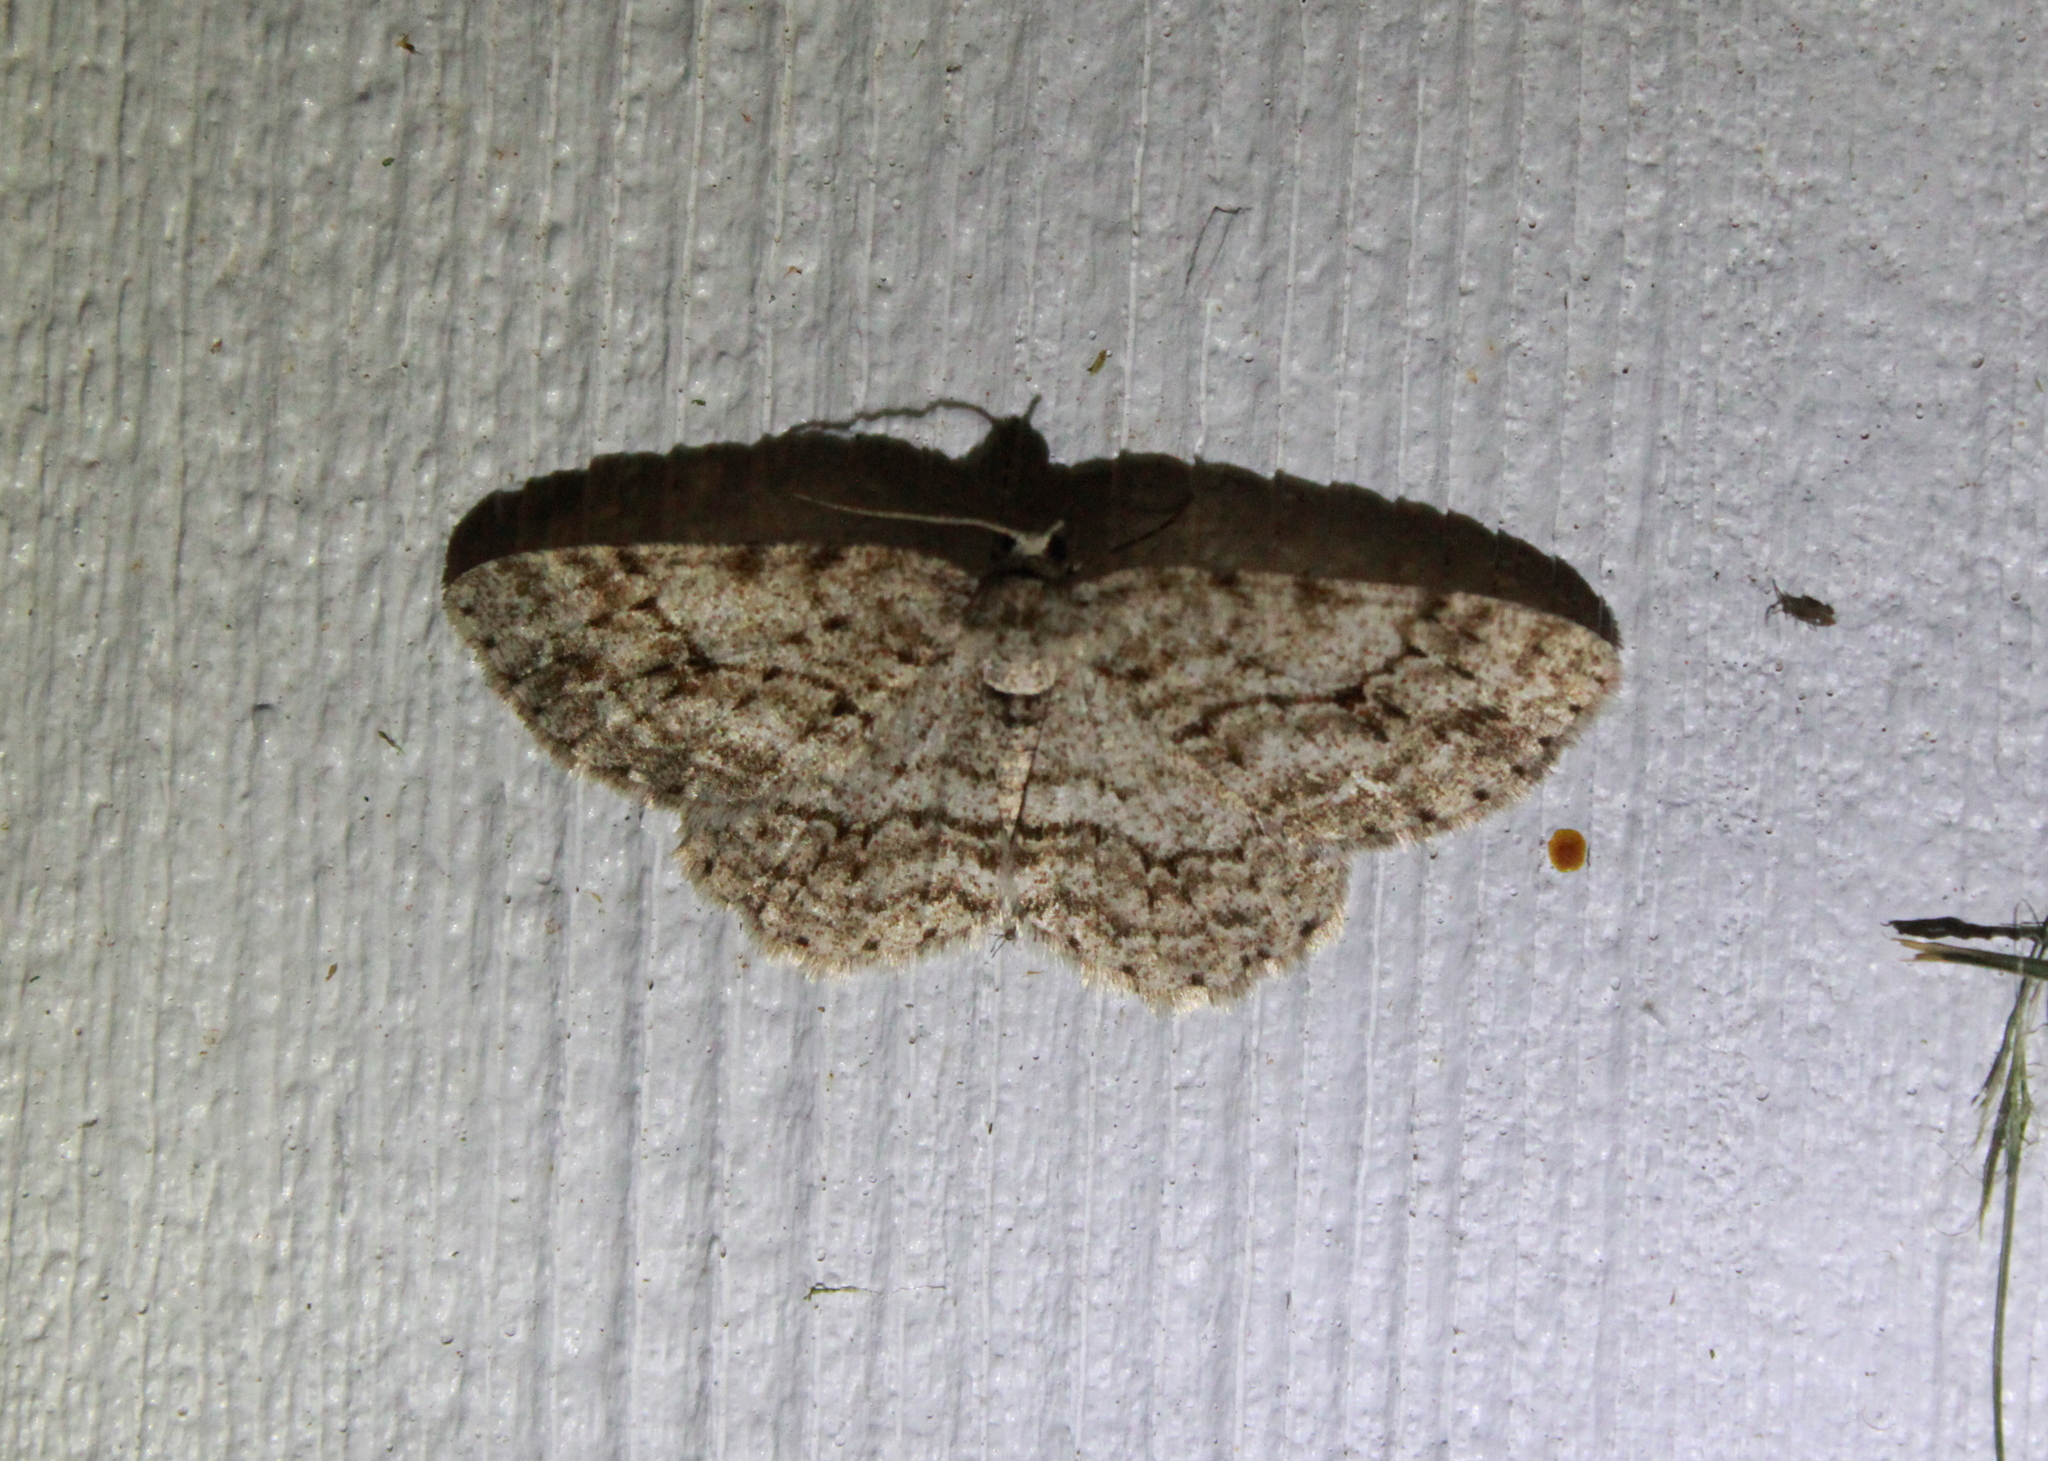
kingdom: Animalia
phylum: Arthropoda
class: Insecta
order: Lepidoptera
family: Geometridae
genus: Ectropis
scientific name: Ectropis crepuscularia
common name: Engrailed
